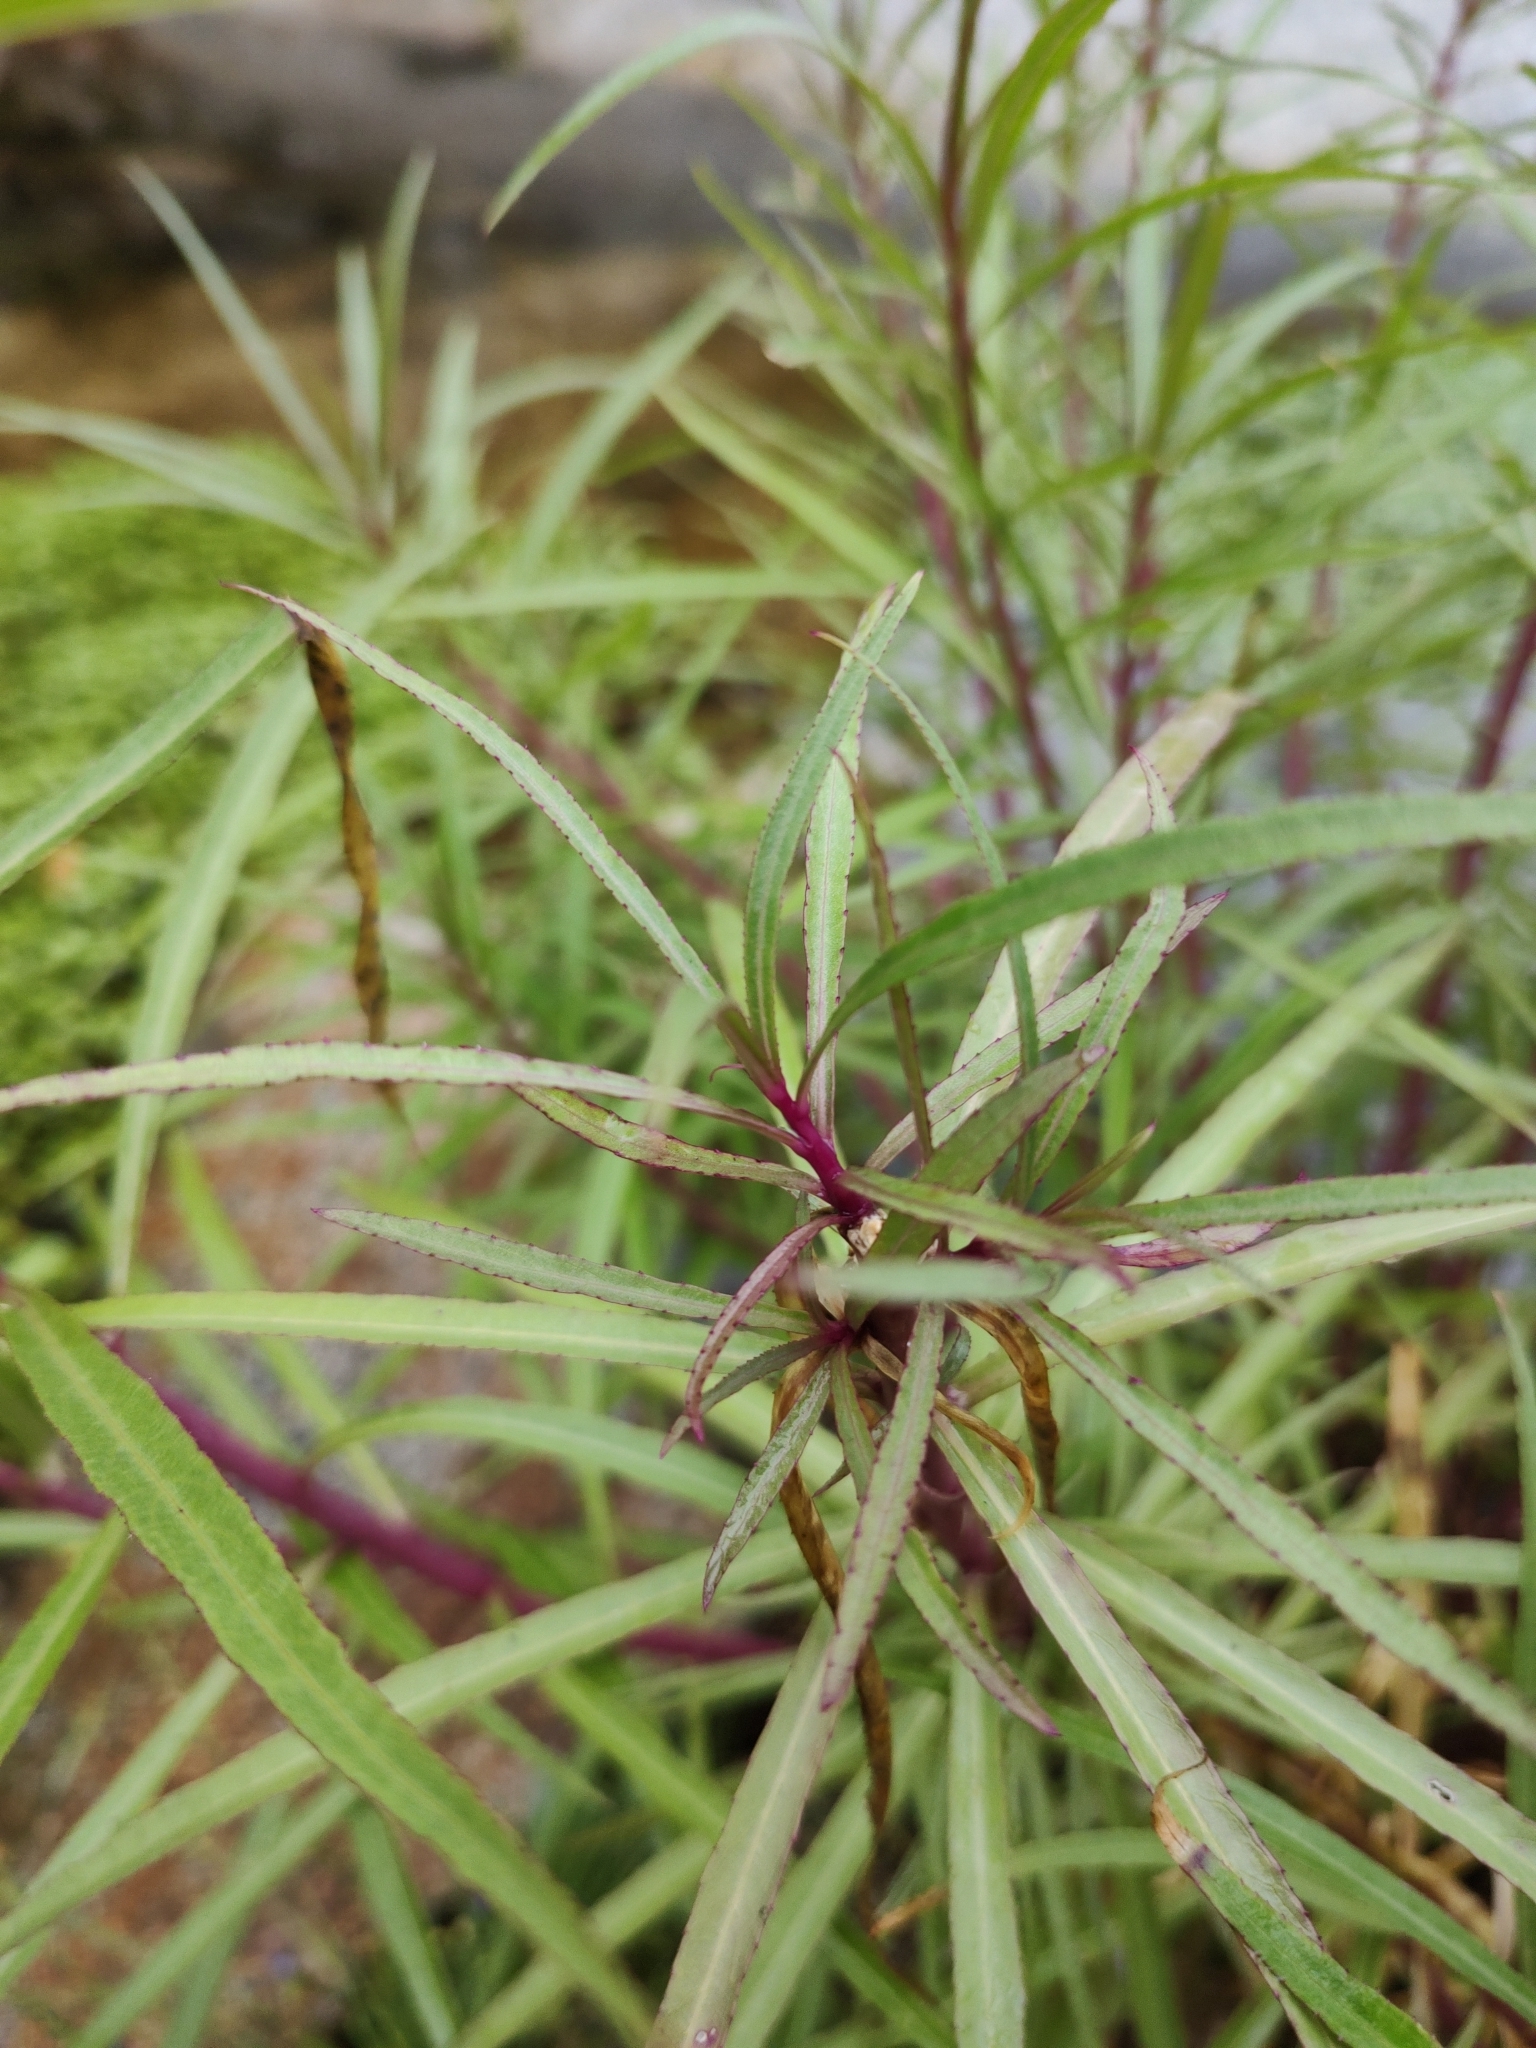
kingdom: Plantae
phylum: Tracheophyta
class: Magnoliopsida
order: Asterales
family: Campanulaceae
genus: Lobelia
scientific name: Lobelia laxiflora
